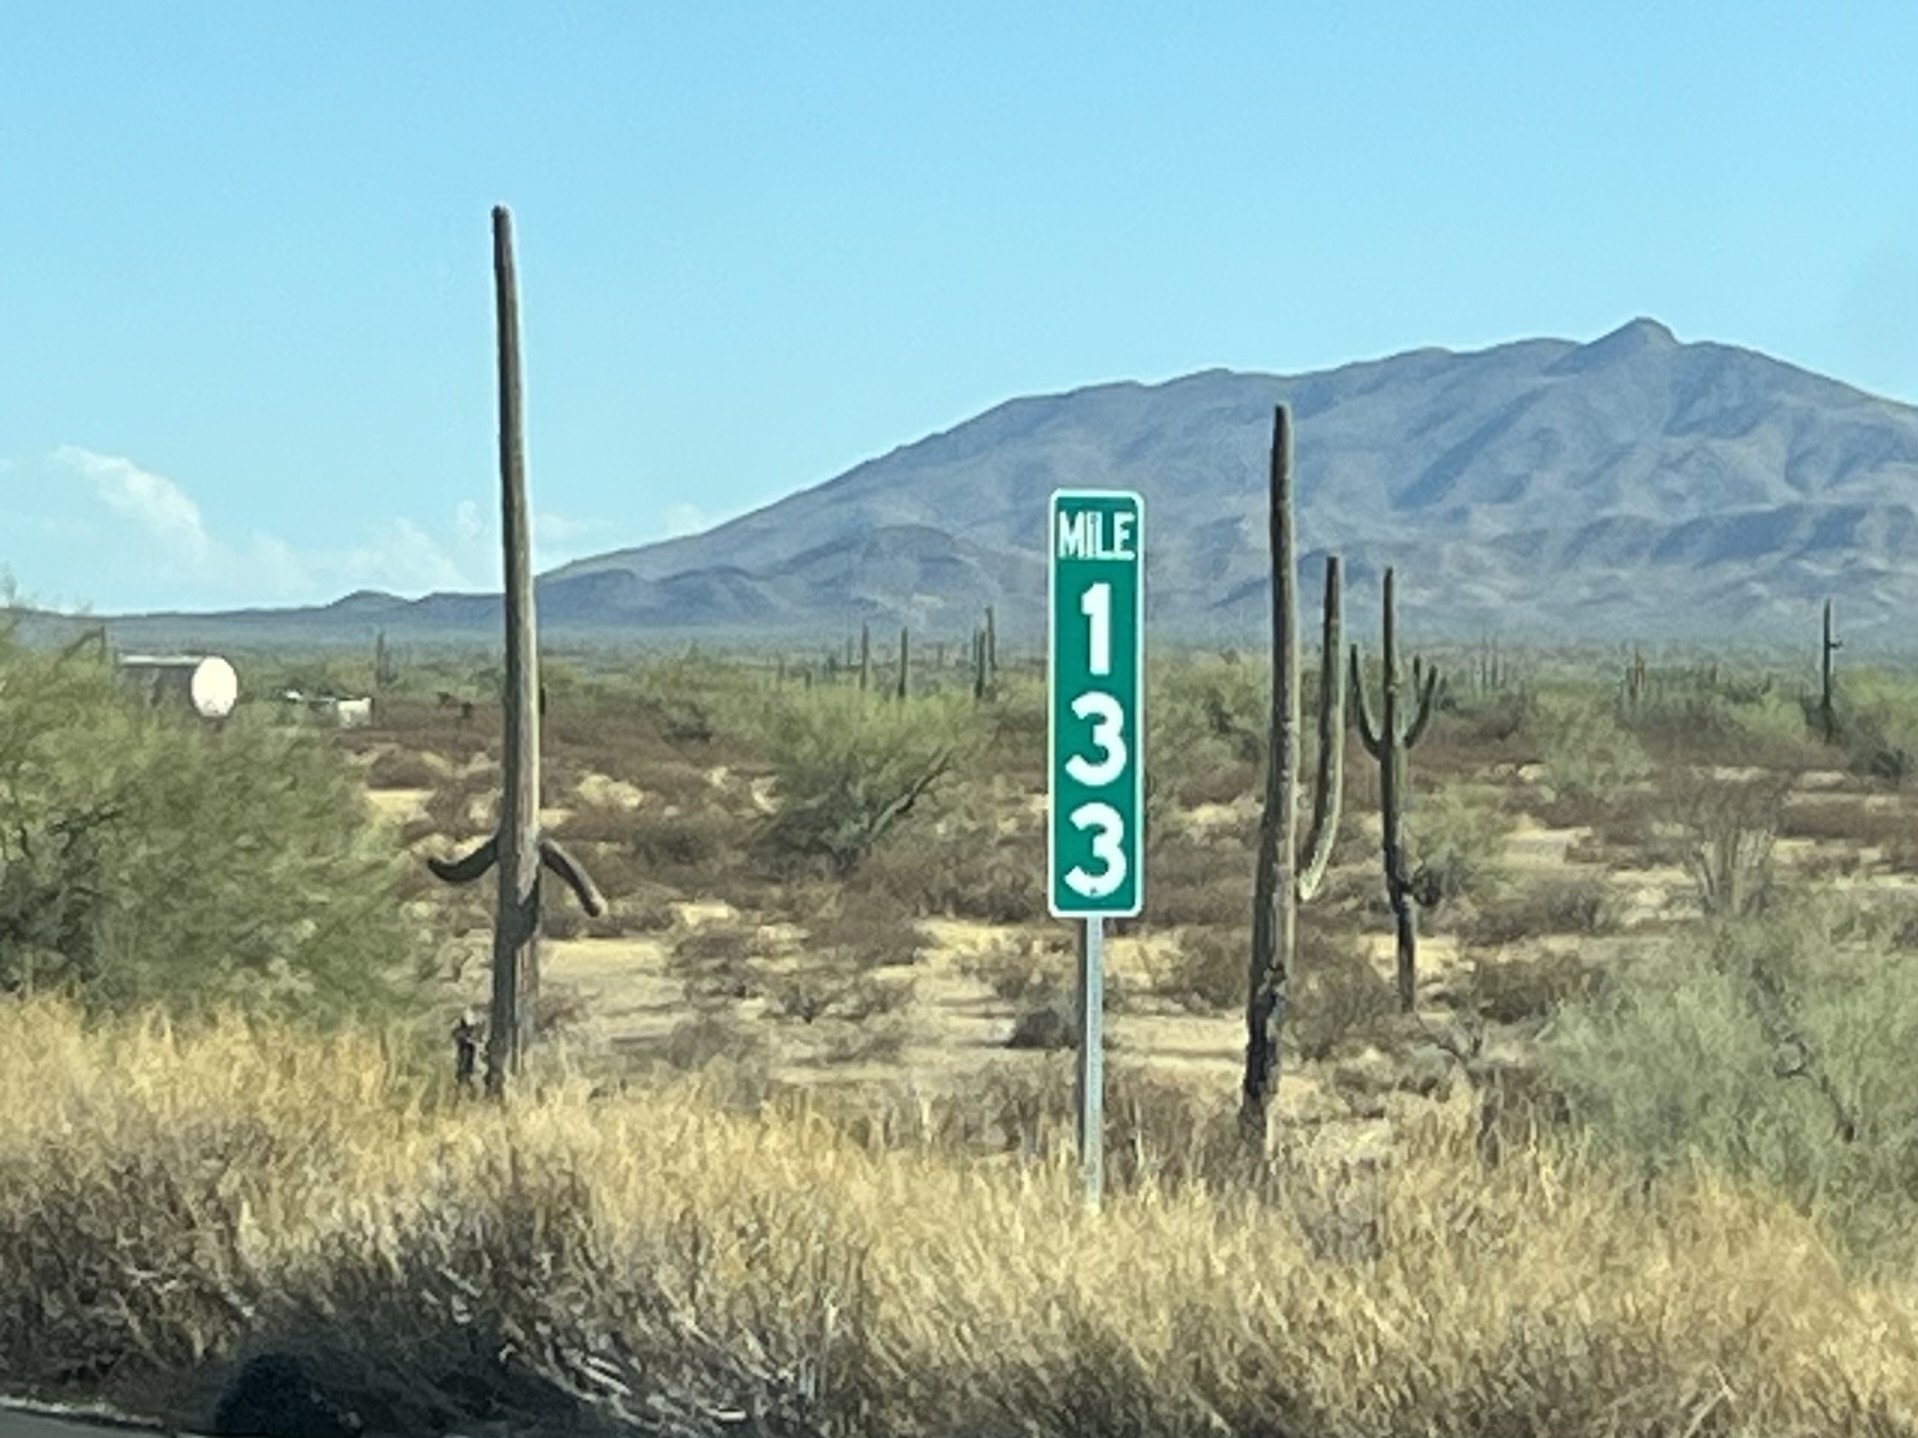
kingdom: Plantae
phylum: Tracheophyta
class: Magnoliopsida
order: Caryophyllales
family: Cactaceae
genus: Carnegiea
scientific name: Carnegiea gigantea
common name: Saguaro
